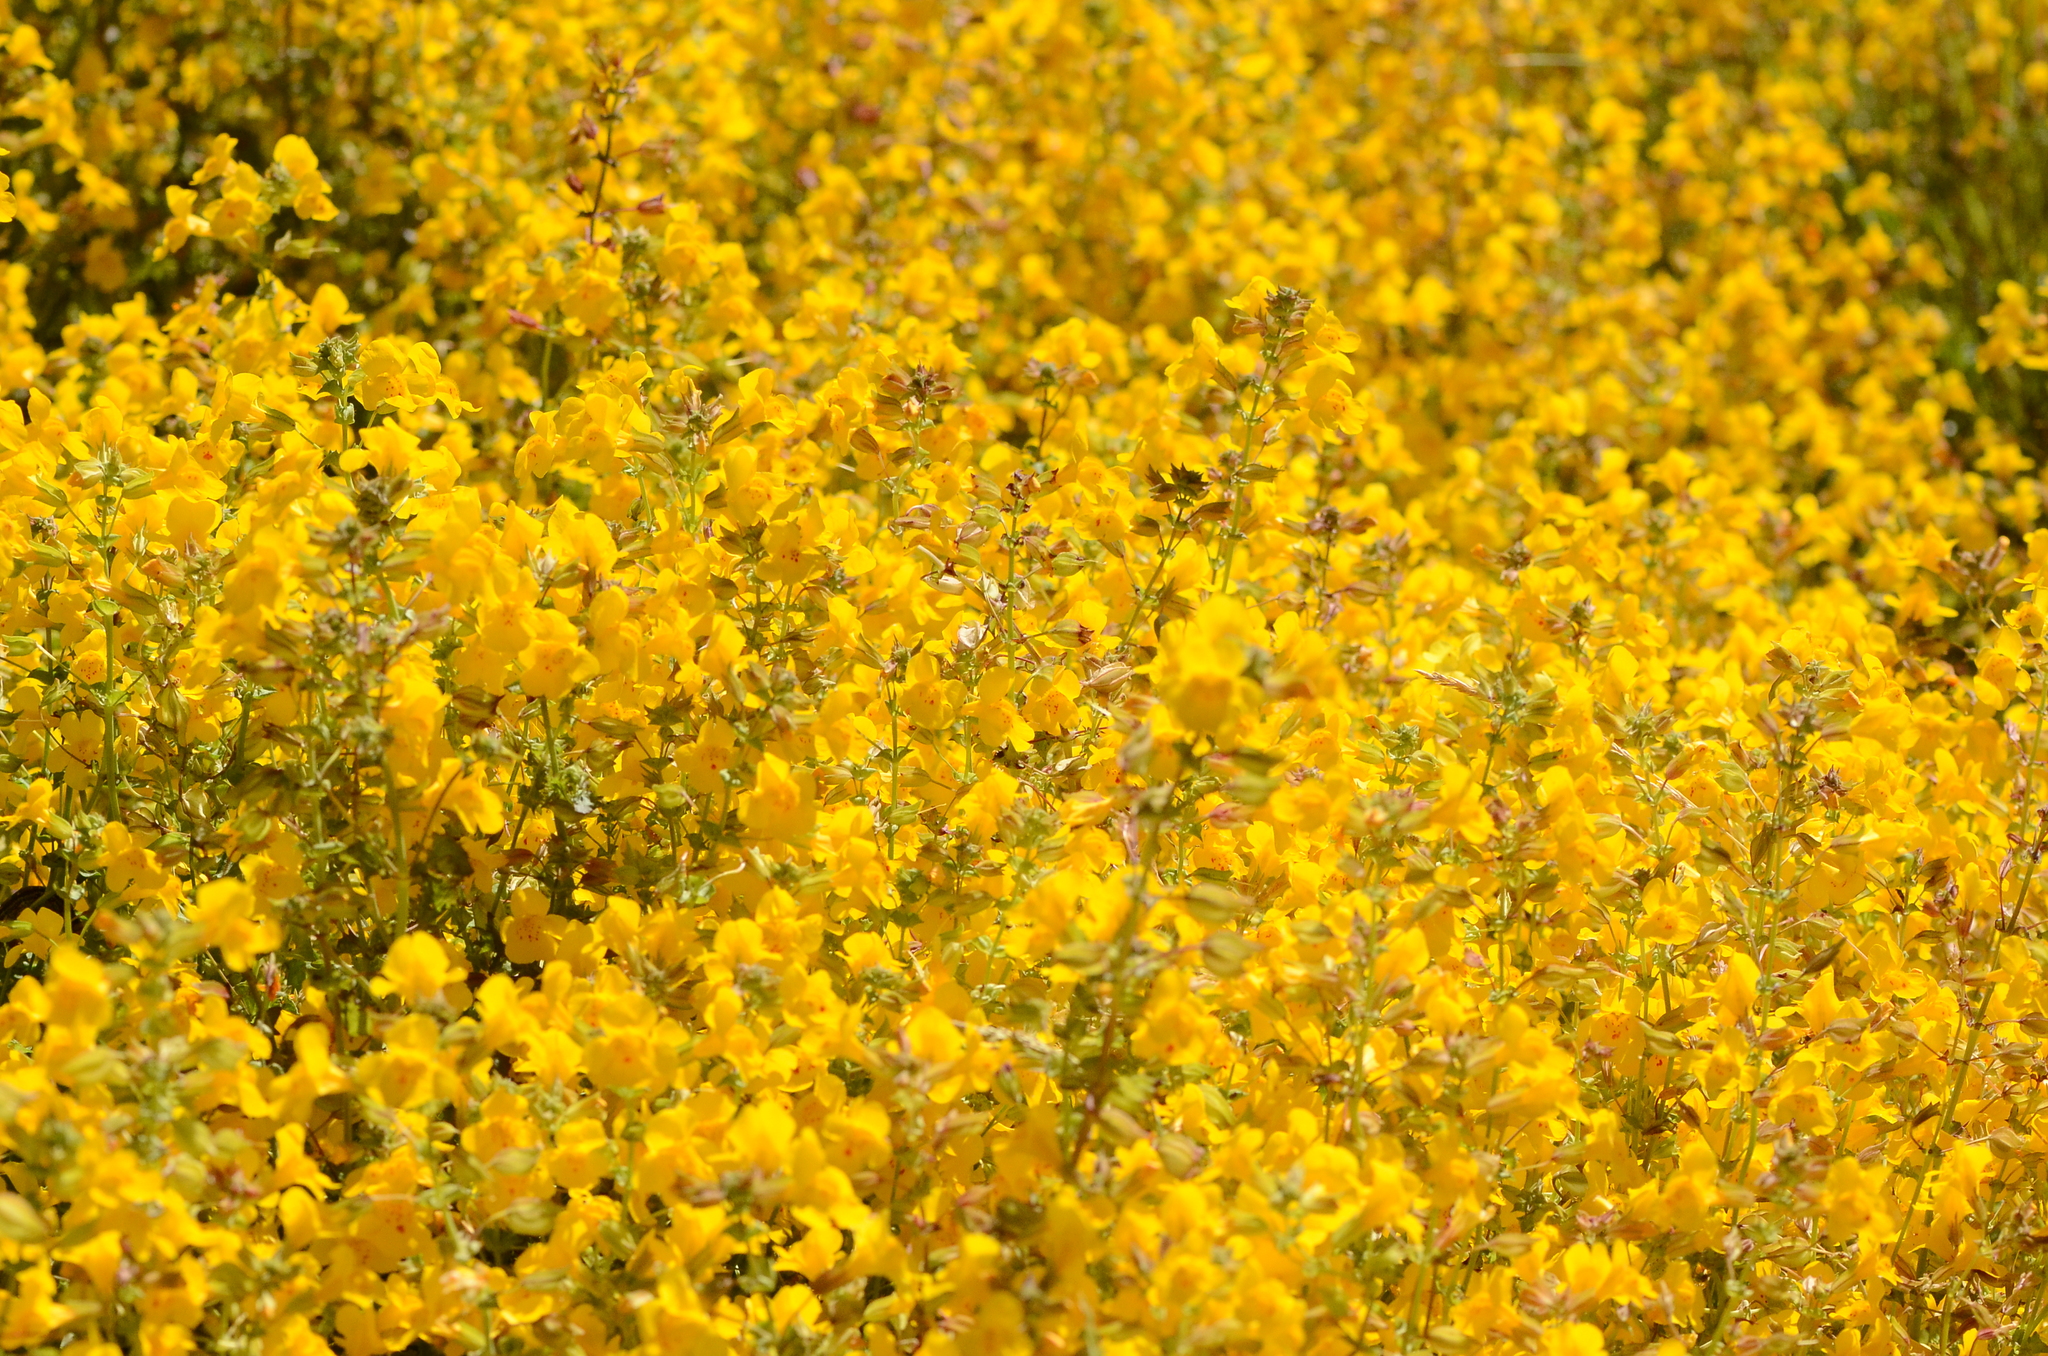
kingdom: Plantae
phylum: Tracheophyta
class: Magnoliopsida
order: Lamiales
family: Phrymaceae
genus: Erythranthe
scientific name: Erythranthe guttata
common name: Monkeyflower
